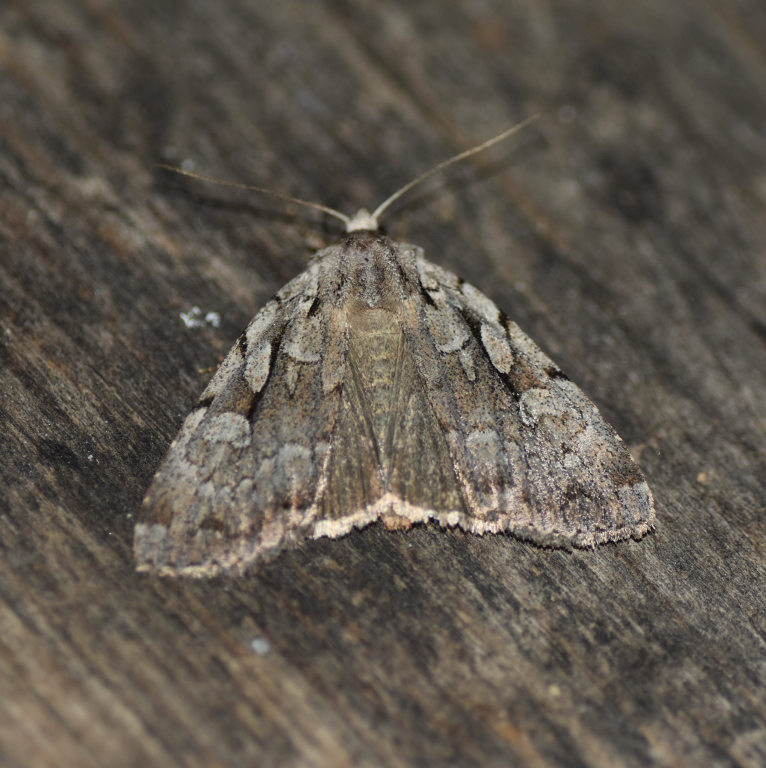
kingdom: Animalia
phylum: Arthropoda
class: Insecta
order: Lepidoptera
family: Noctuidae
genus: Xestia
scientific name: Xestia badicollis
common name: Northern variable dart
